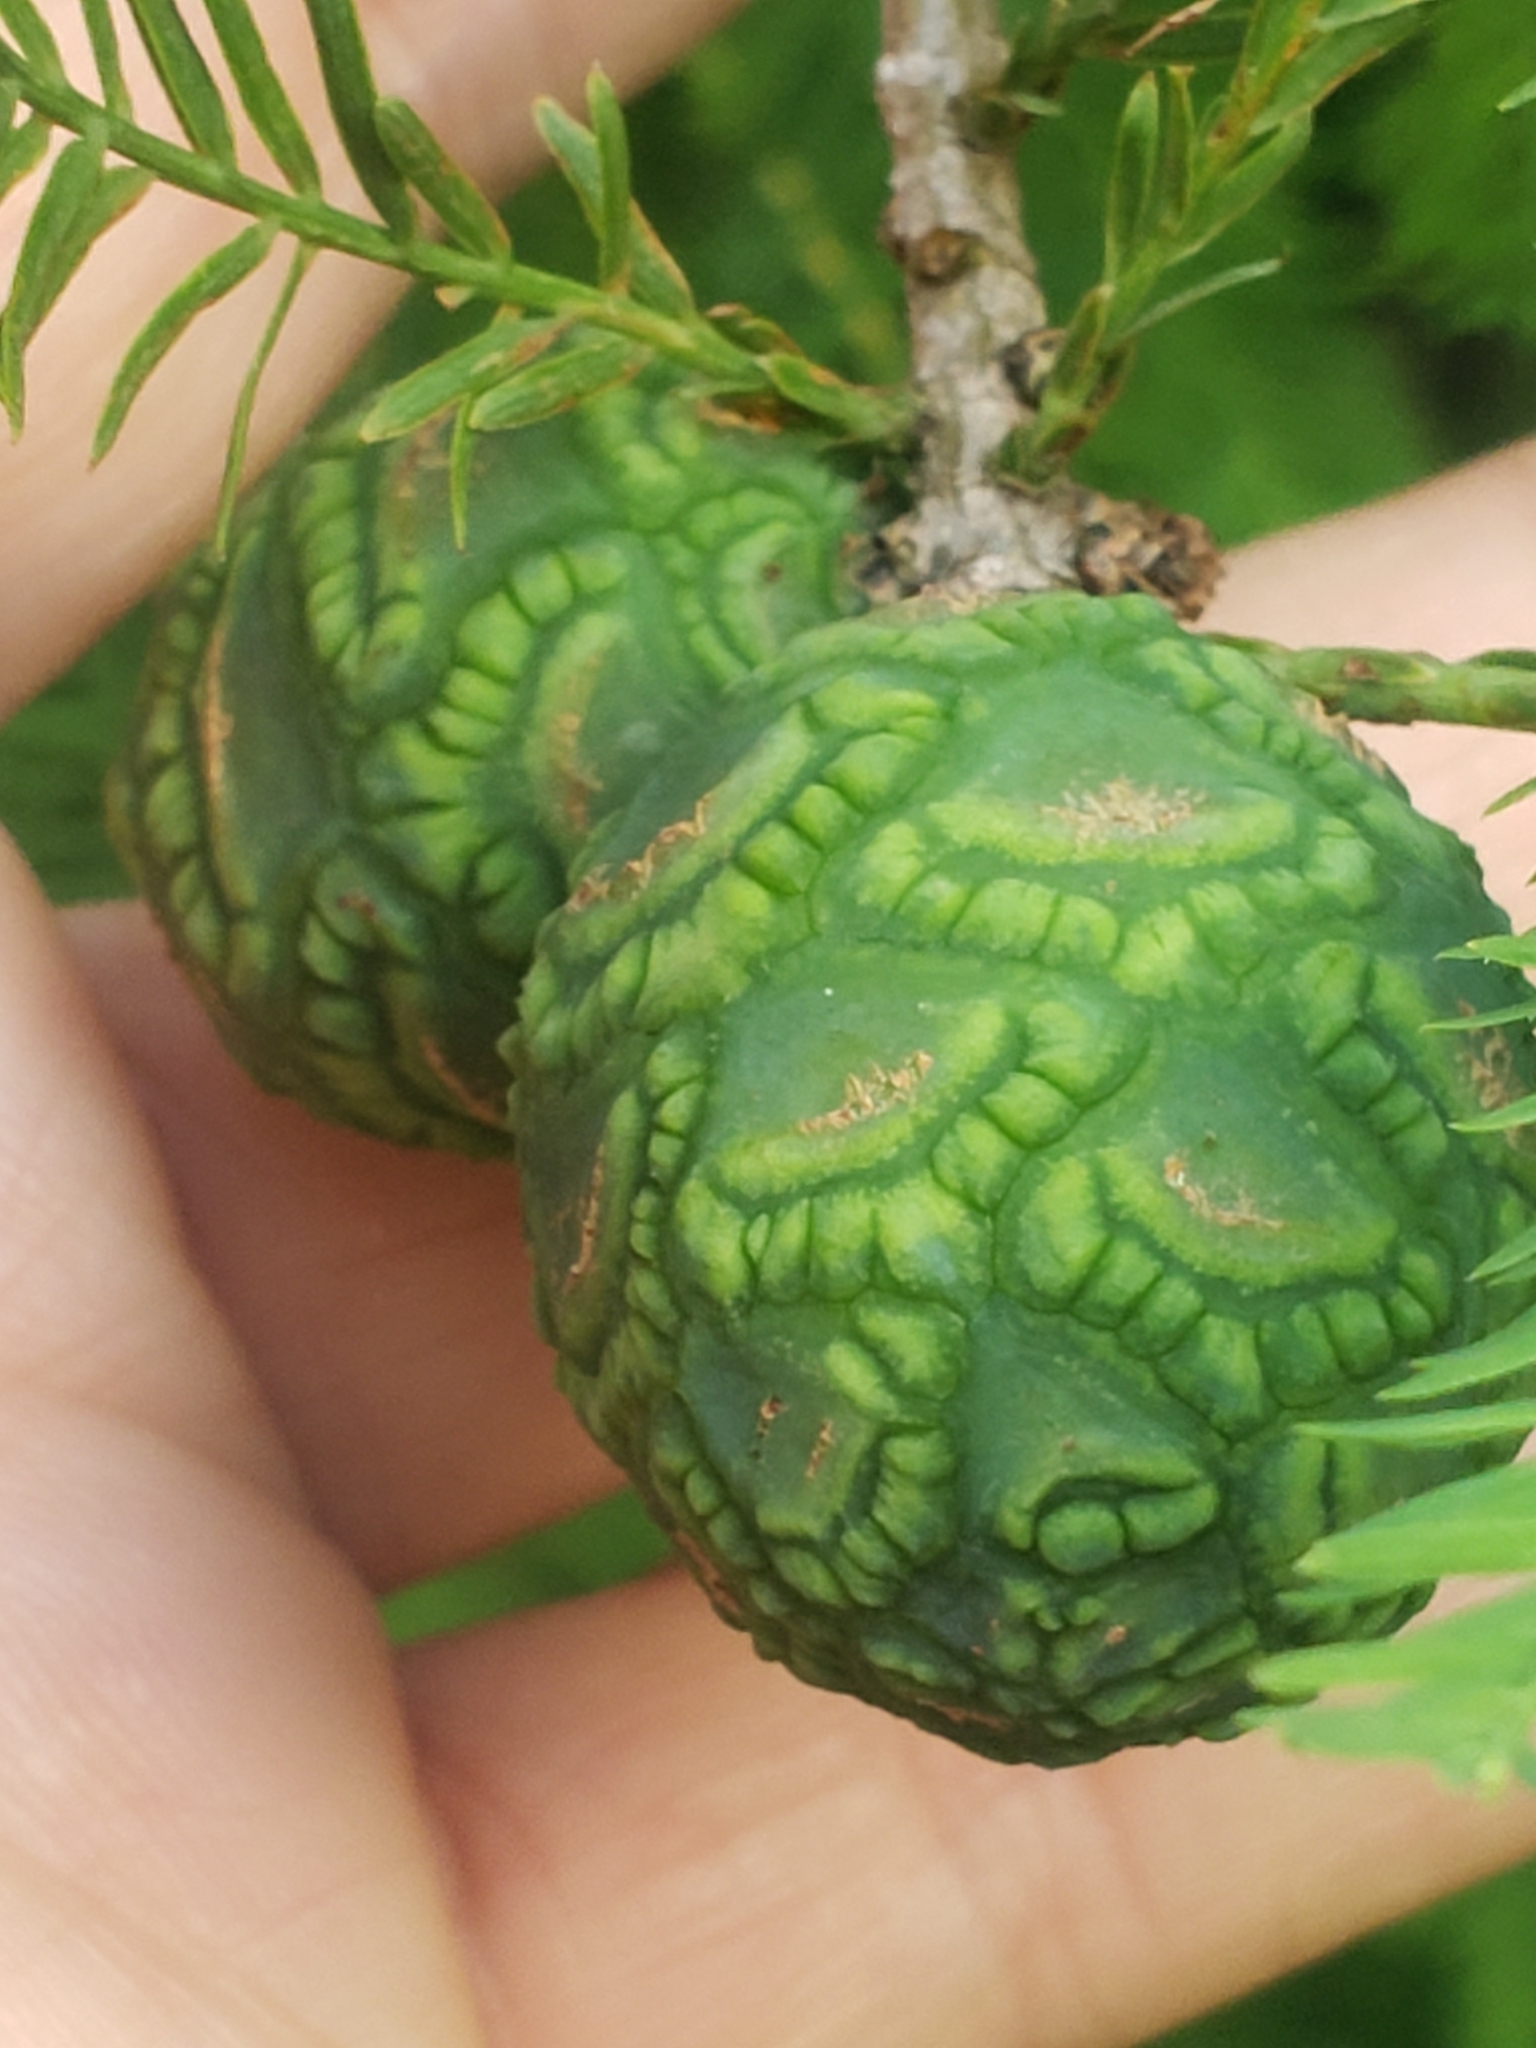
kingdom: Plantae
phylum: Tracheophyta
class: Pinopsida
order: Pinales
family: Cupressaceae
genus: Taxodium
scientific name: Taxodium distichum
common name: Bald cypress
